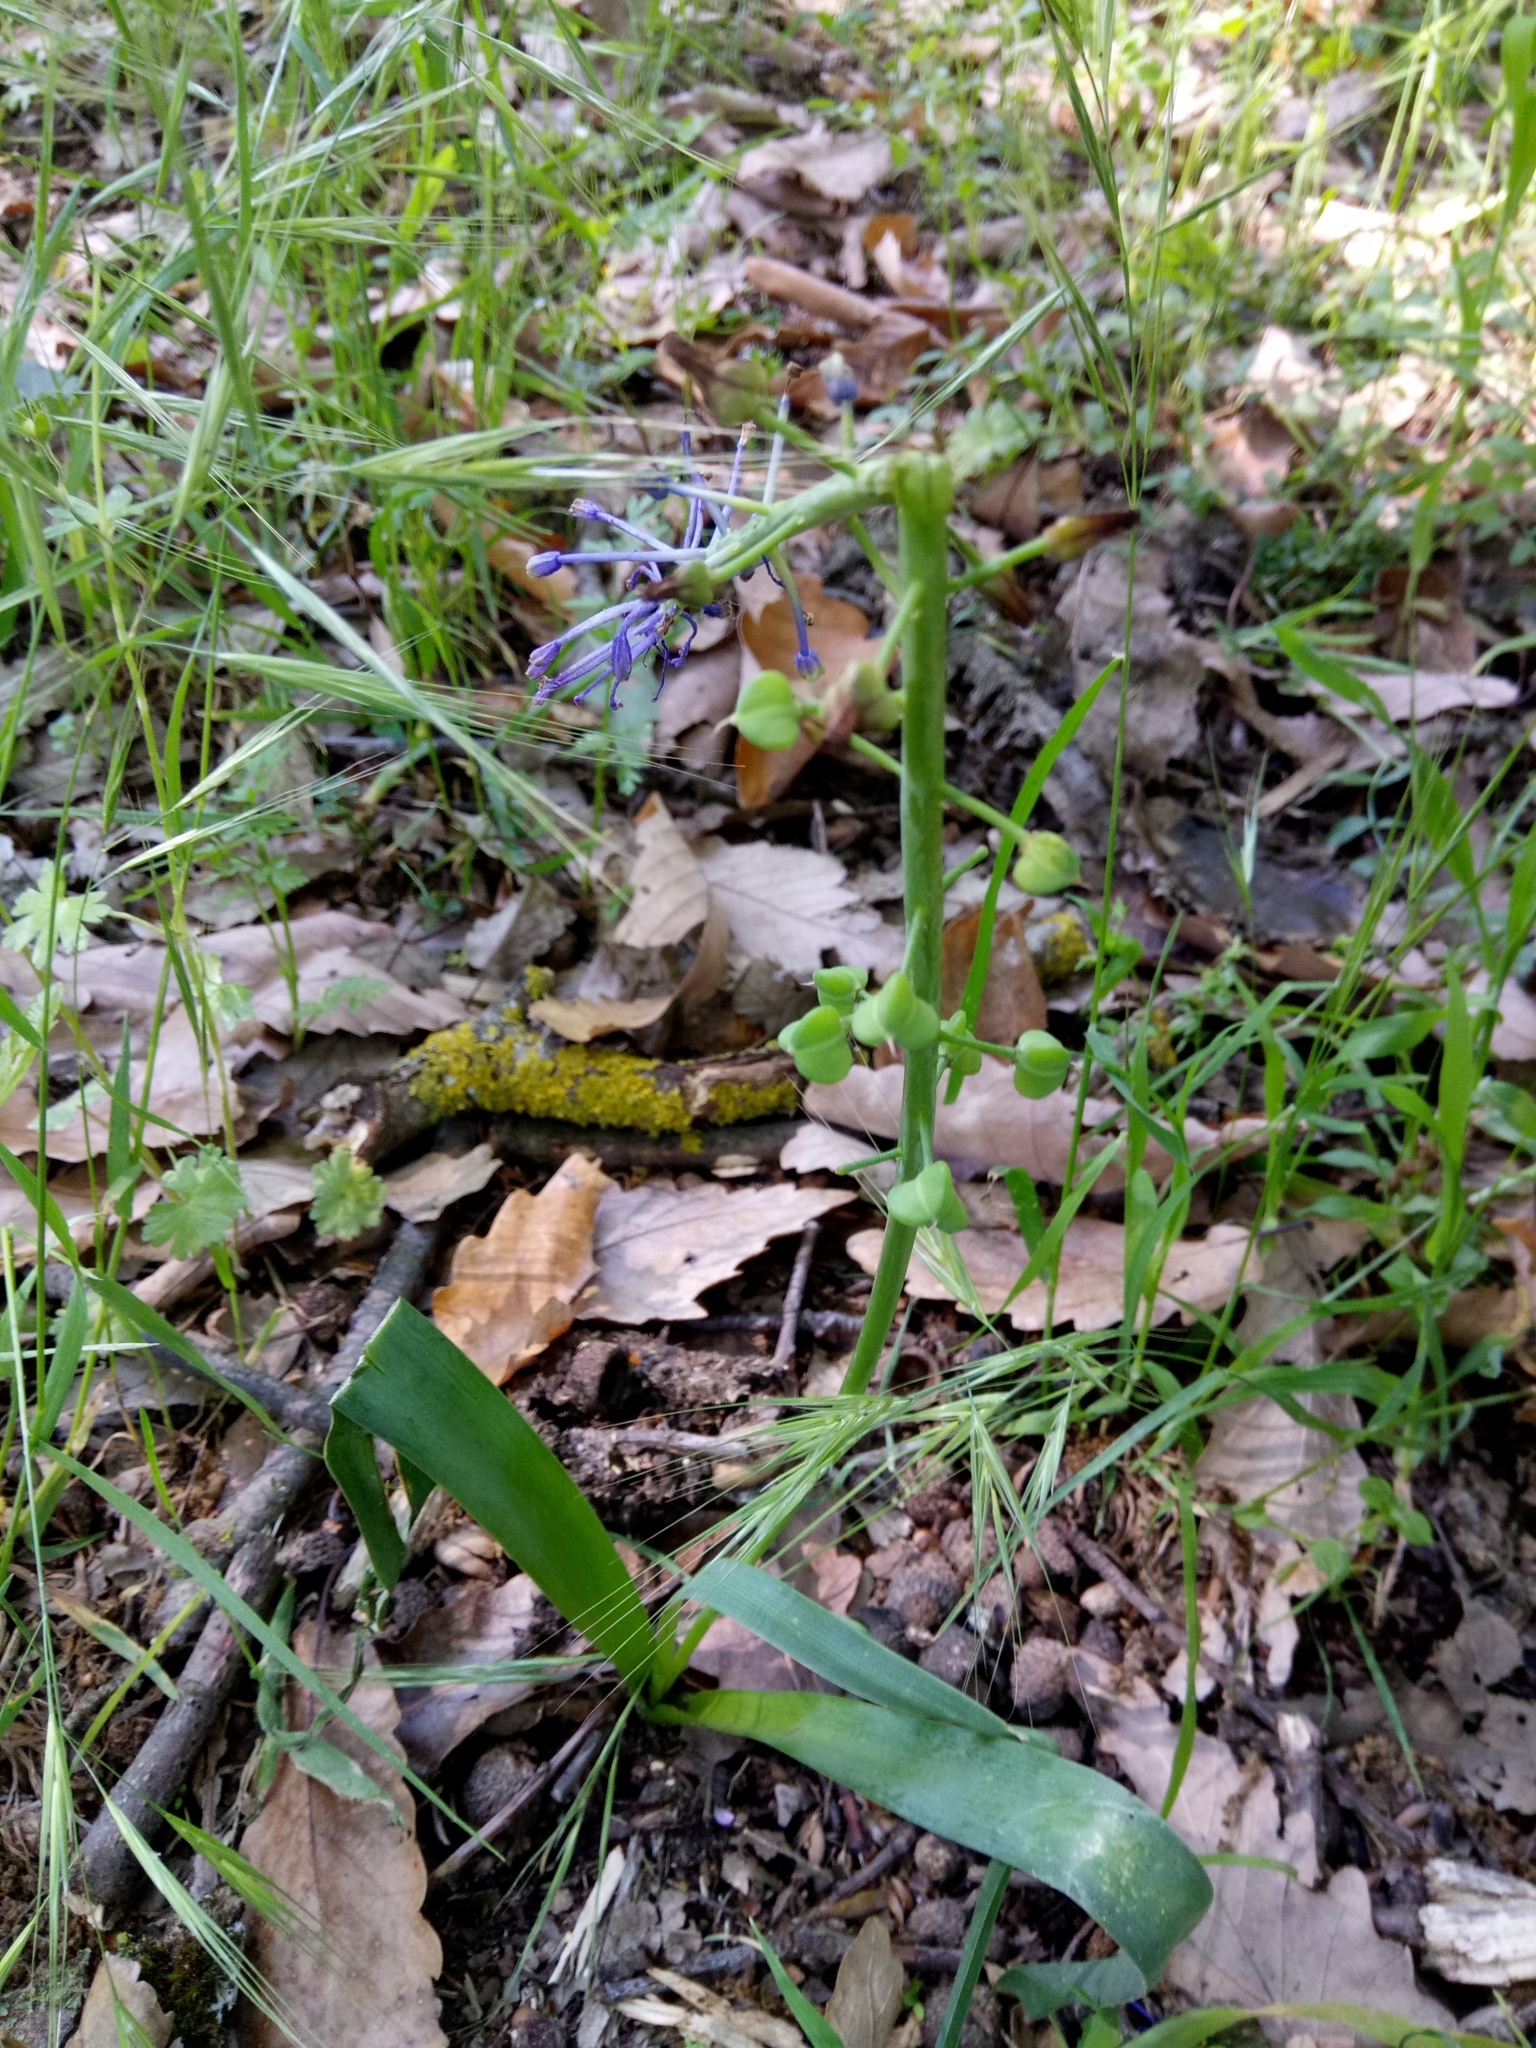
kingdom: Plantae
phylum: Tracheophyta
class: Liliopsida
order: Asparagales
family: Asparagaceae
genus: Muscari
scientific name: Muscari comosum
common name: Tassel hyacinth
